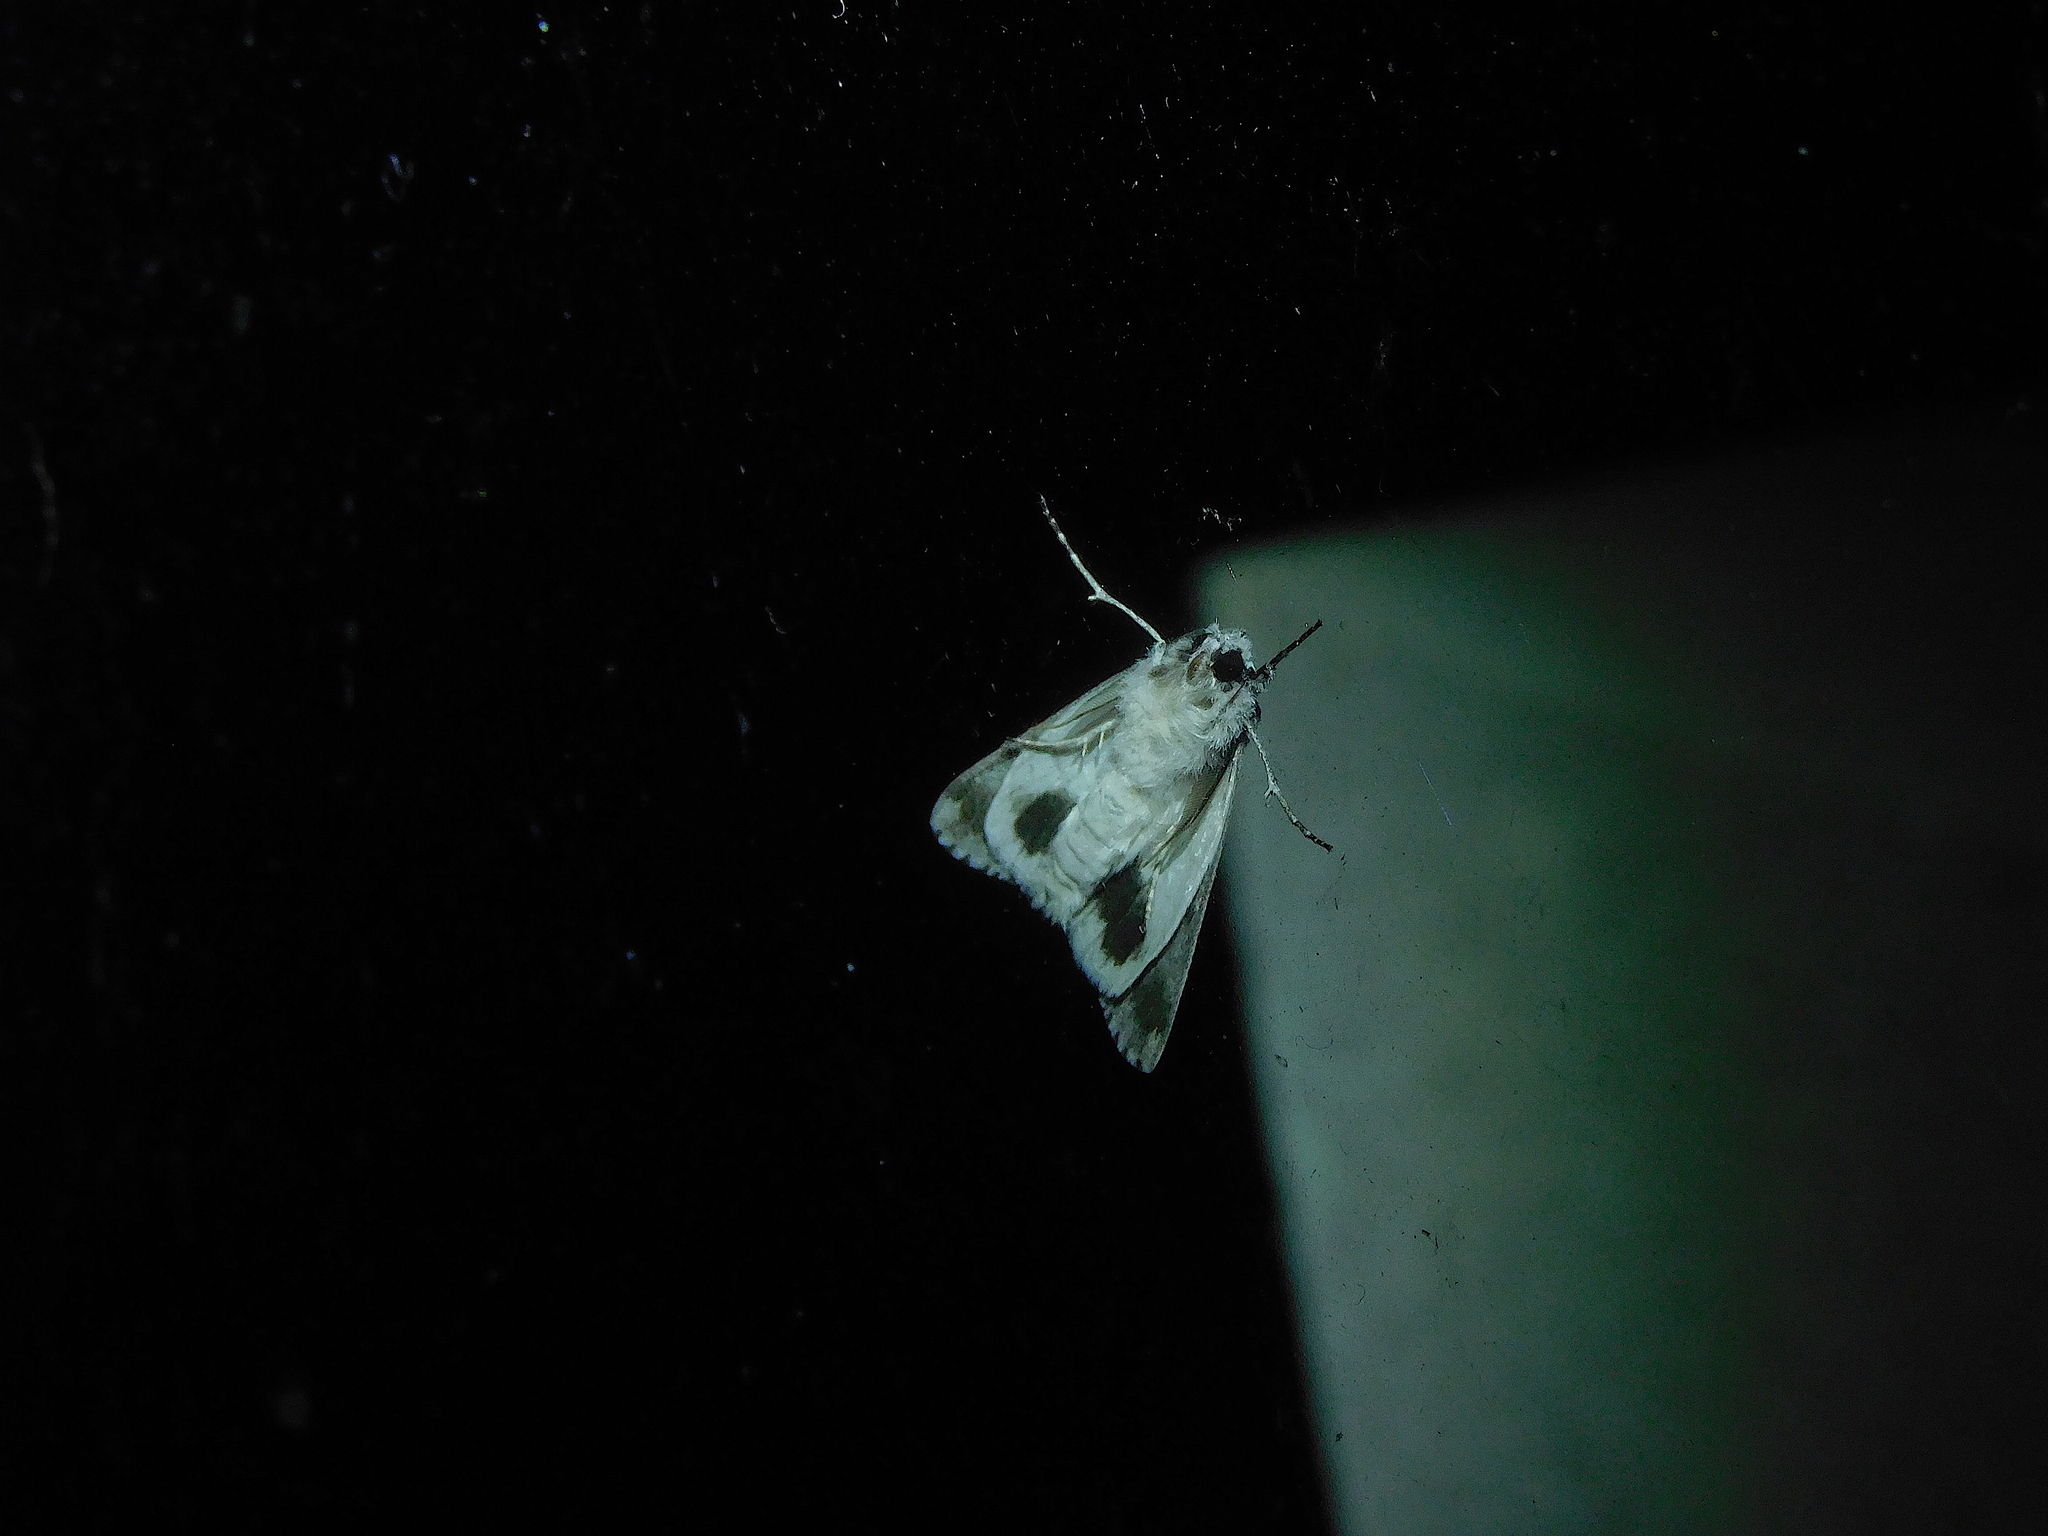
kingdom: Animalia
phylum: Arthropoda
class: Insecta
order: Lepidoptera
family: Geometridae
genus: Gastrinodes
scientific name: Gastrinodes bitaeniaria
